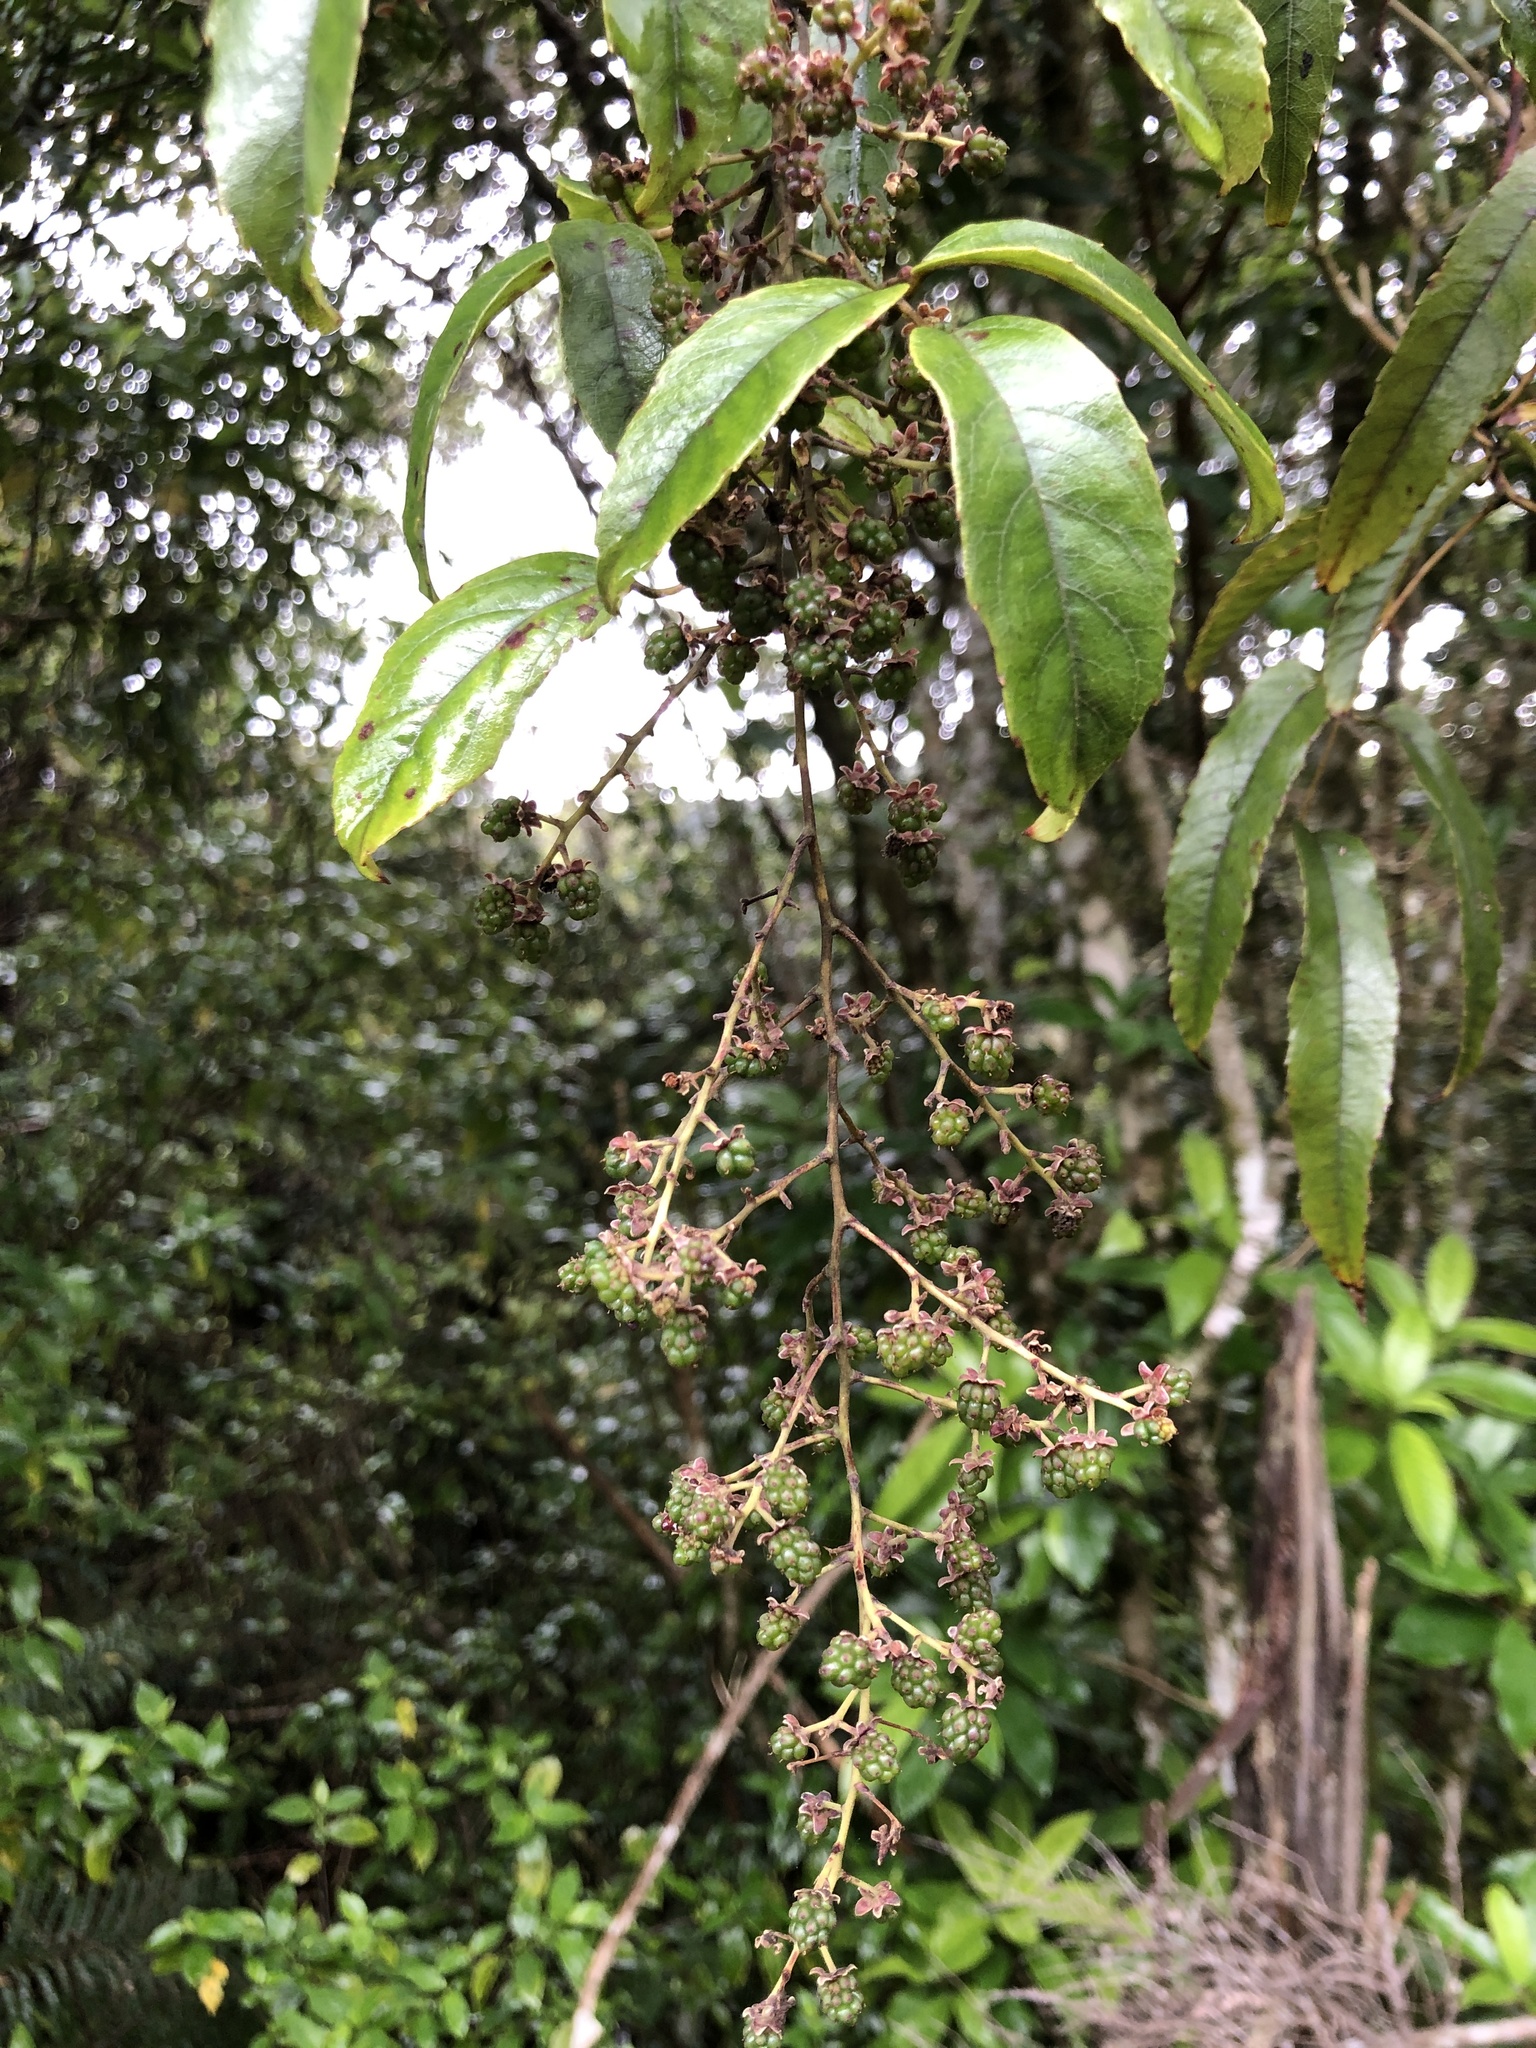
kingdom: Plantae
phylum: Tracheophyta
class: Magnoliopsida
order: Rosales
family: Rosaceae
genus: Rubus
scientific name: Rubus cissoides
